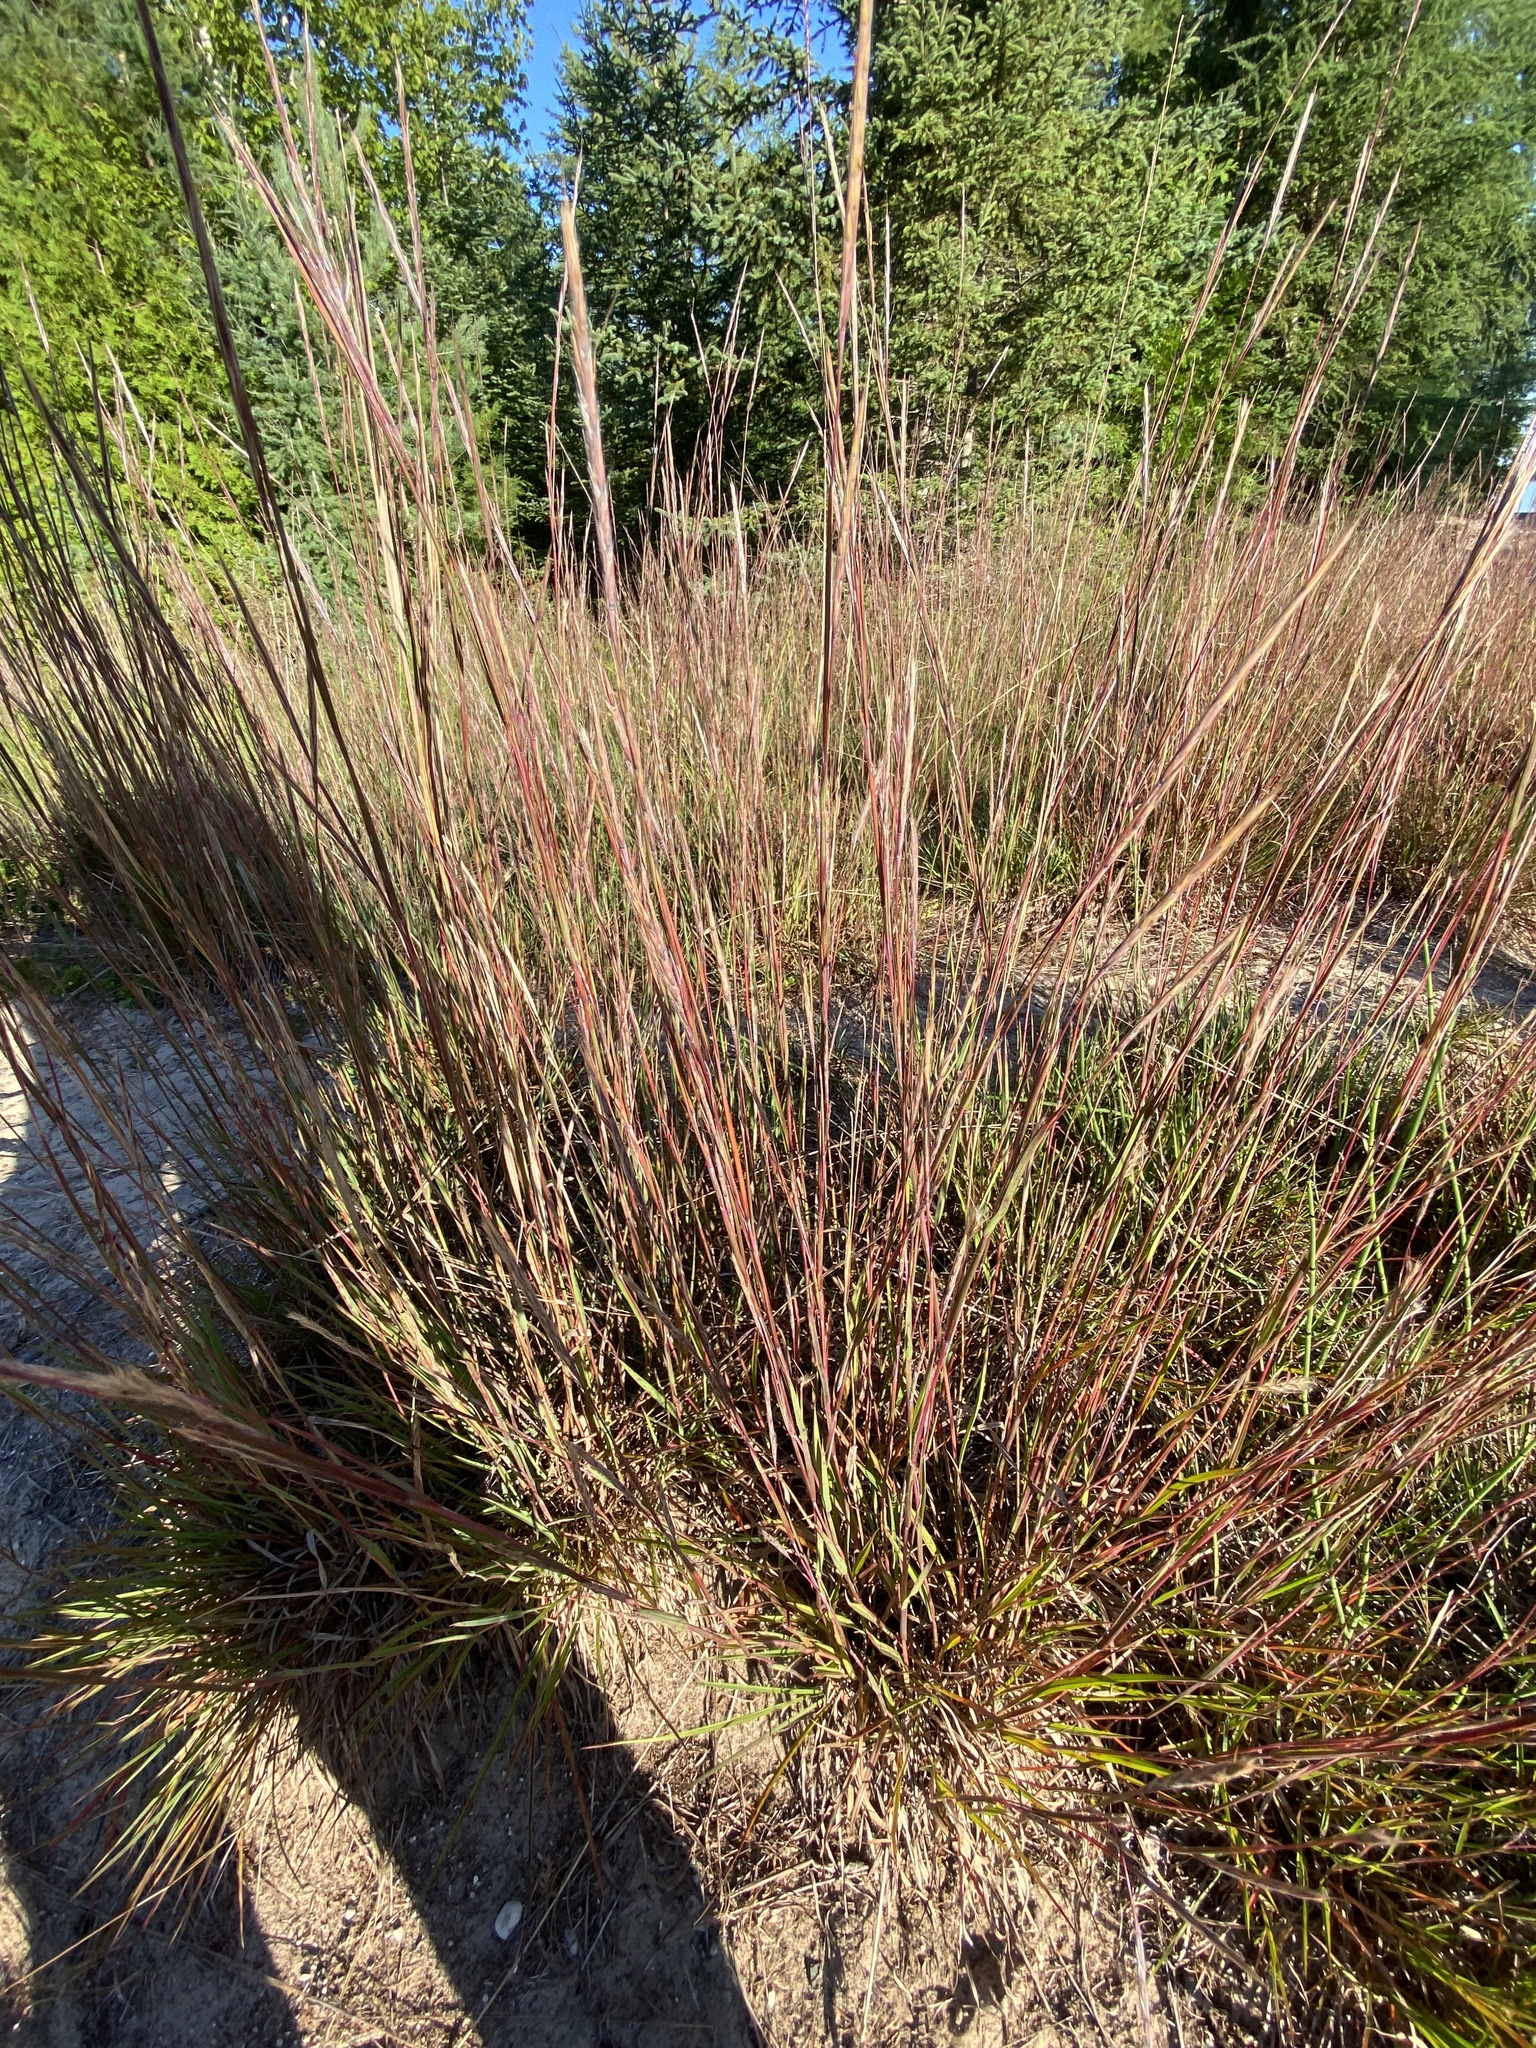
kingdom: Plantae
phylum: Tracheophyta
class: Liliopsida
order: Poales
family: Poaceae
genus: Schizachyrium
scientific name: Schizachyrium scoparium
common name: Little bluestem
